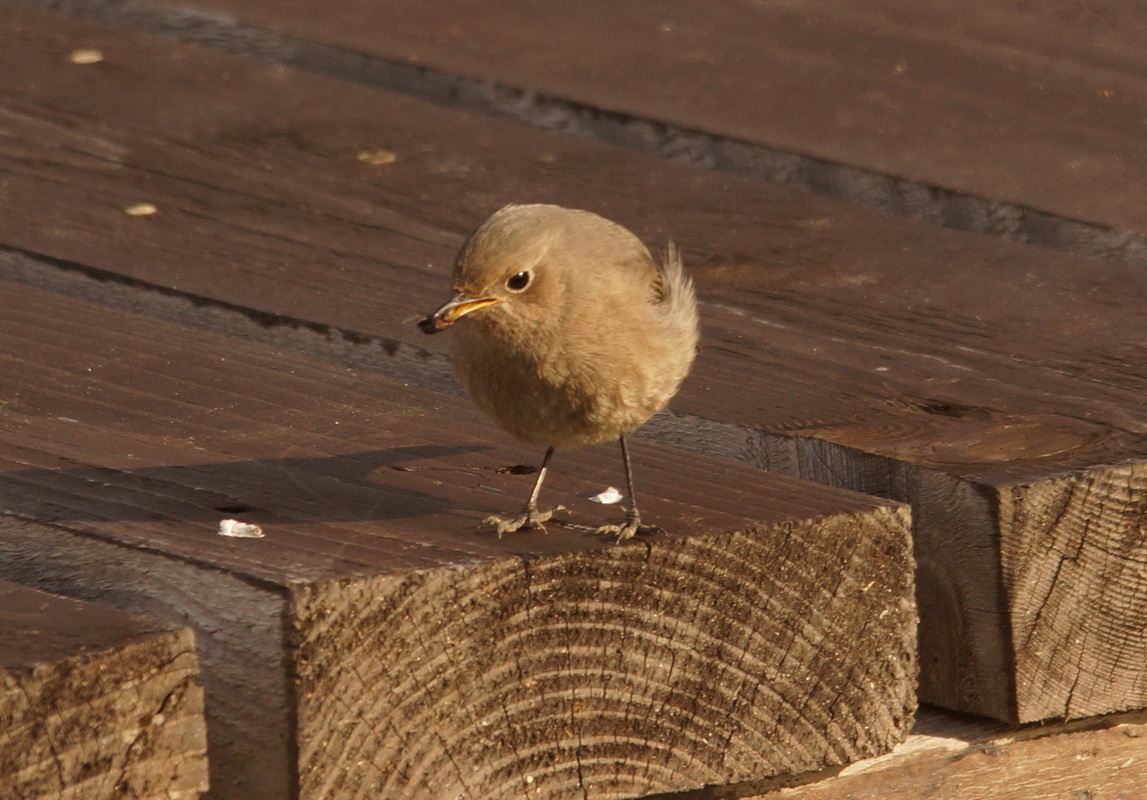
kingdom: Animalia
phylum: Chordata
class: Aves
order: Passeriformes
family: Muscicapidae
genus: Phoenicurus
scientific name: Phoenicurus ochruros
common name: Black redstart
